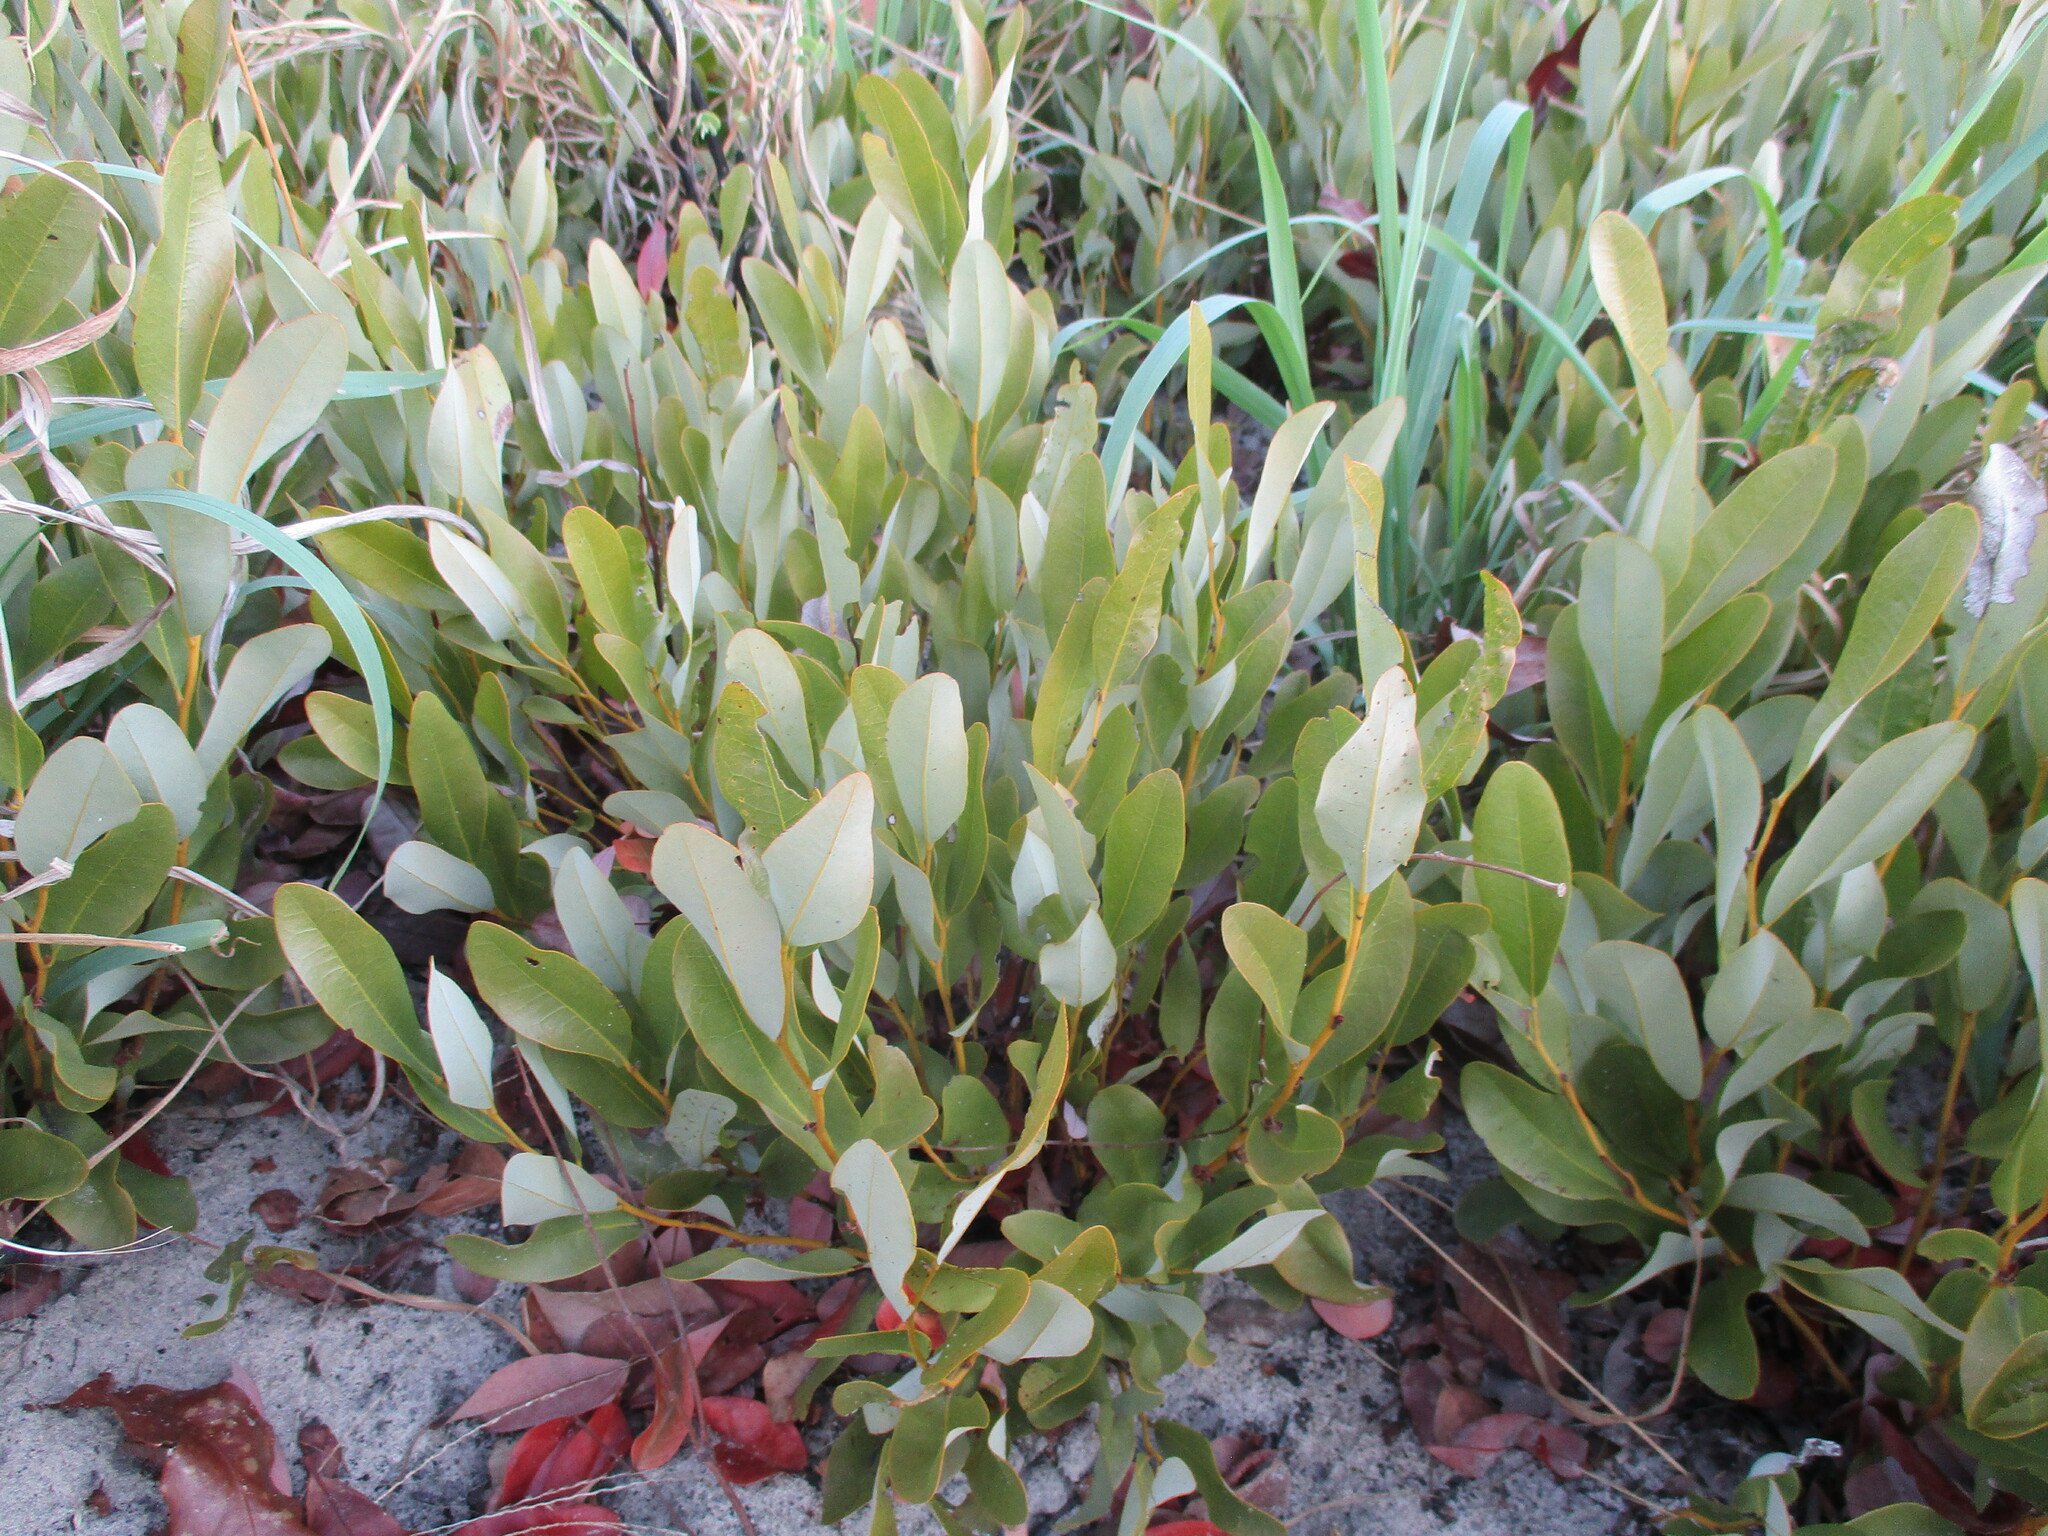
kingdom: Plantae
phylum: Tracheophyta
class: Magnoliopsida
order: Ericales
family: Ebenaceae
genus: Diospyros
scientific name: Diospyros chamaethamnus
